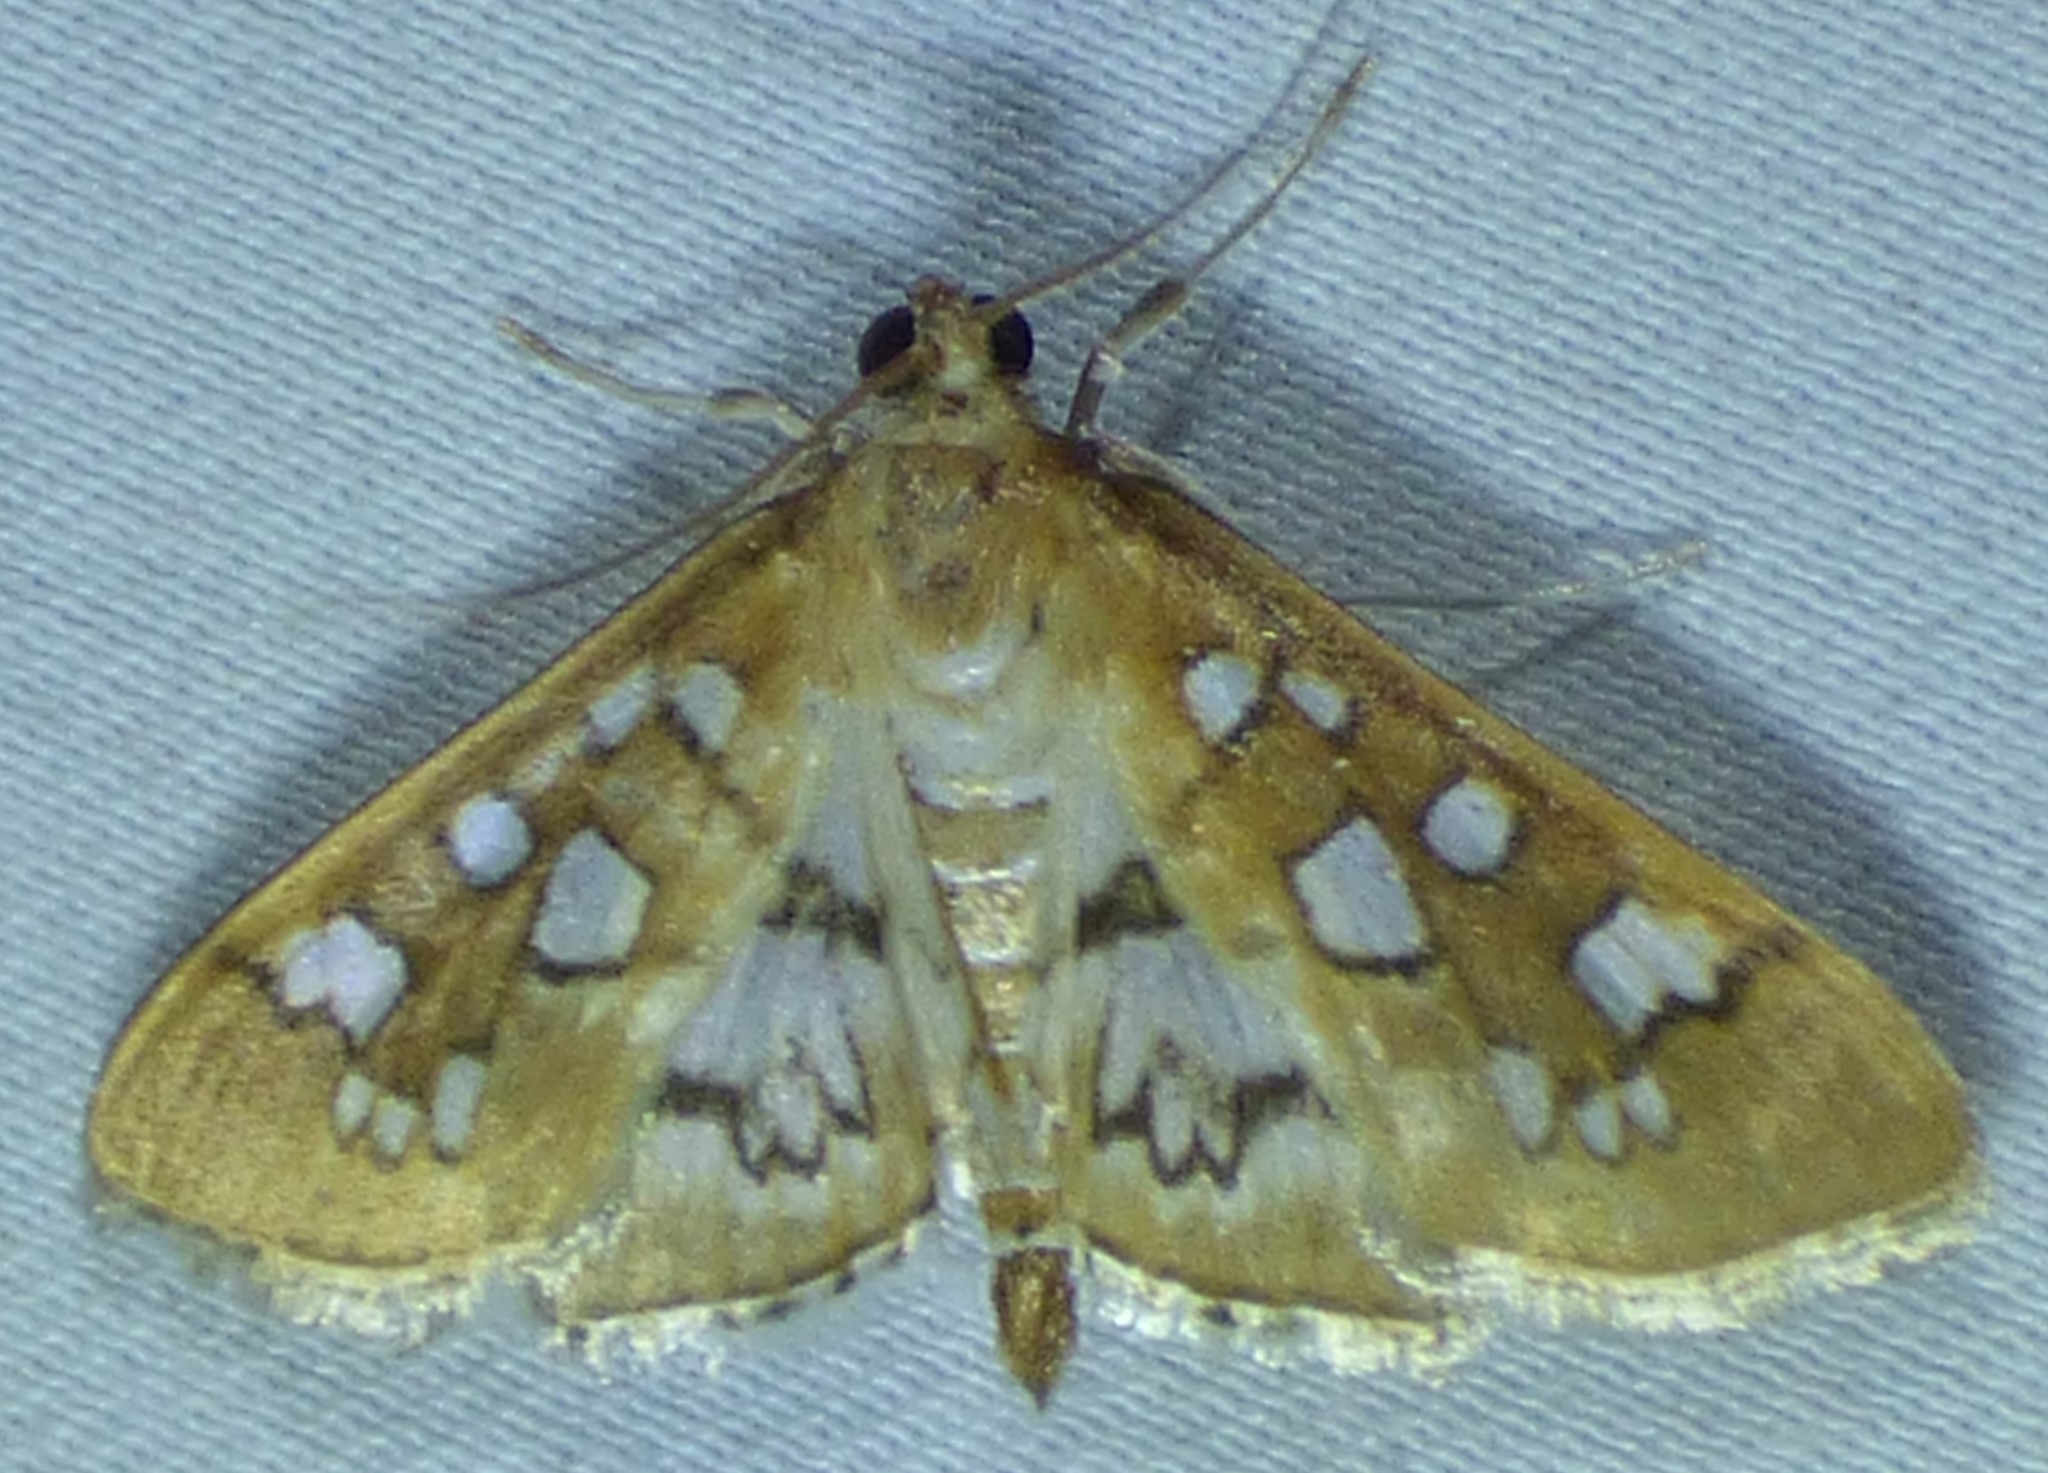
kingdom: Animalia
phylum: Arthropoda
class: Insecta
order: Lepidoptera
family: Crambidae
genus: Samea
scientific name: Samea baccatalis
